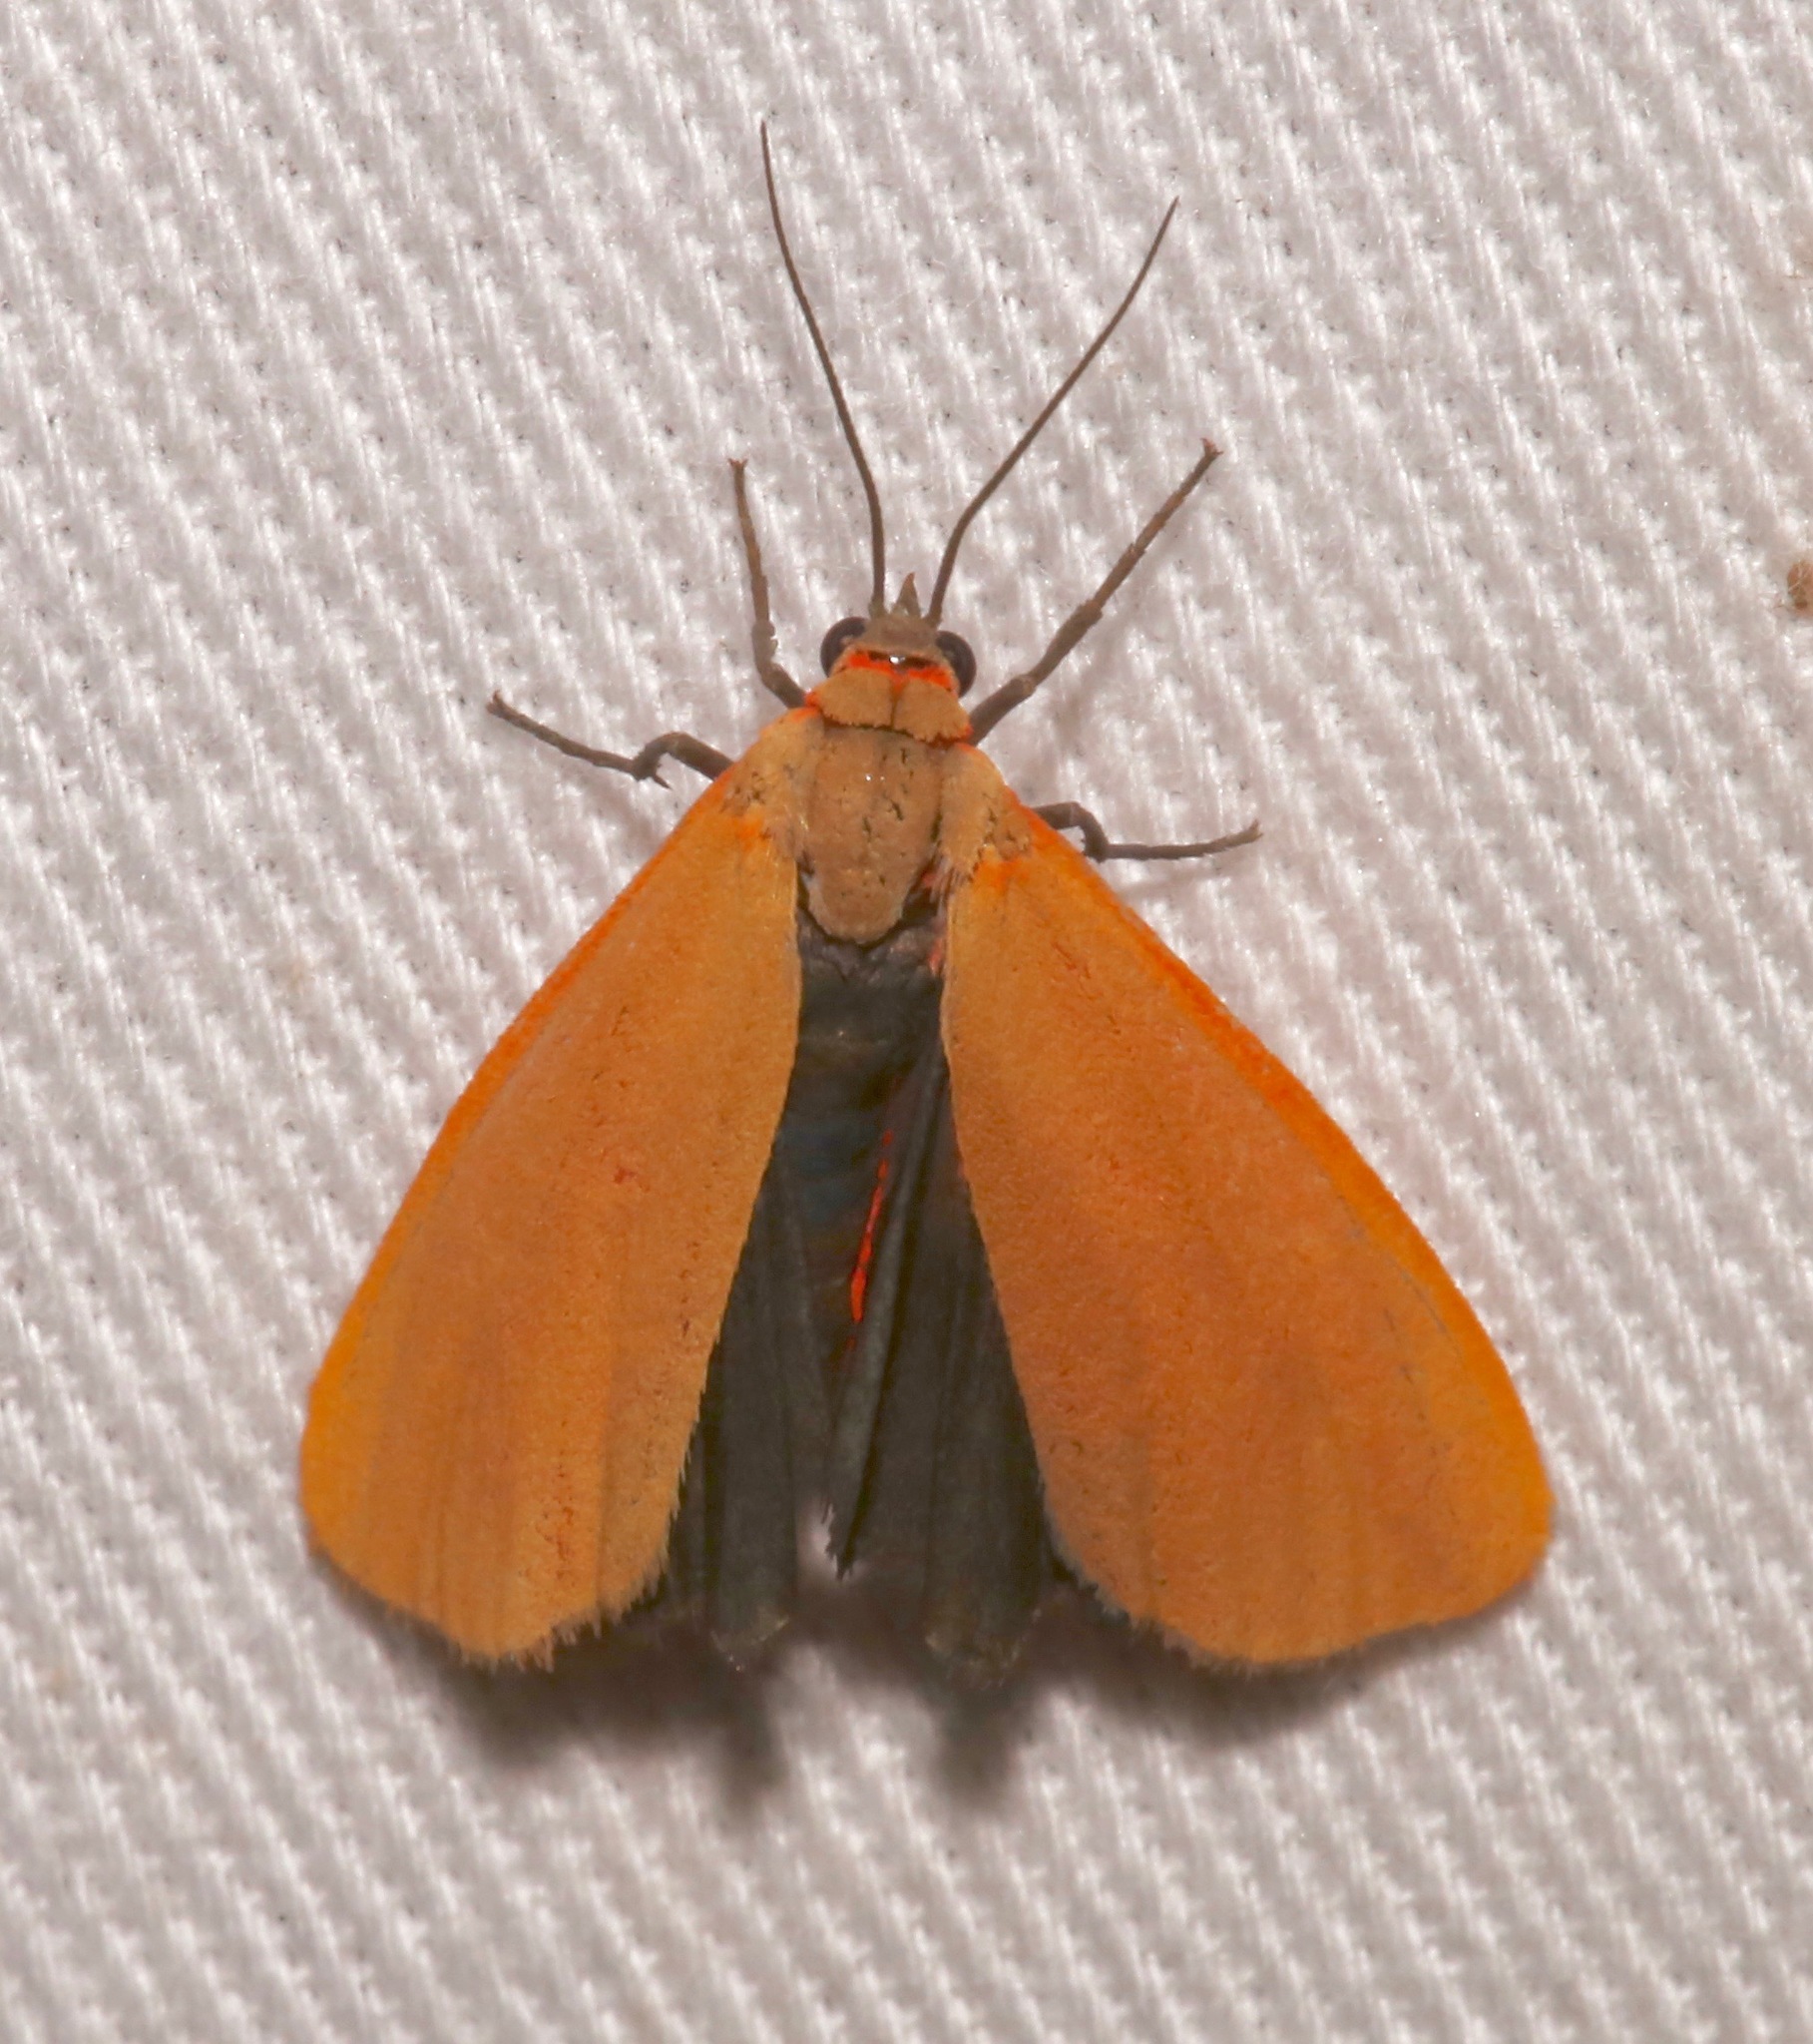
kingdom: Animalia
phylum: Arthropoda
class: Insecta
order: Lepidoptera
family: Erebidae
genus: Virbia
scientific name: Virbia ostenta
